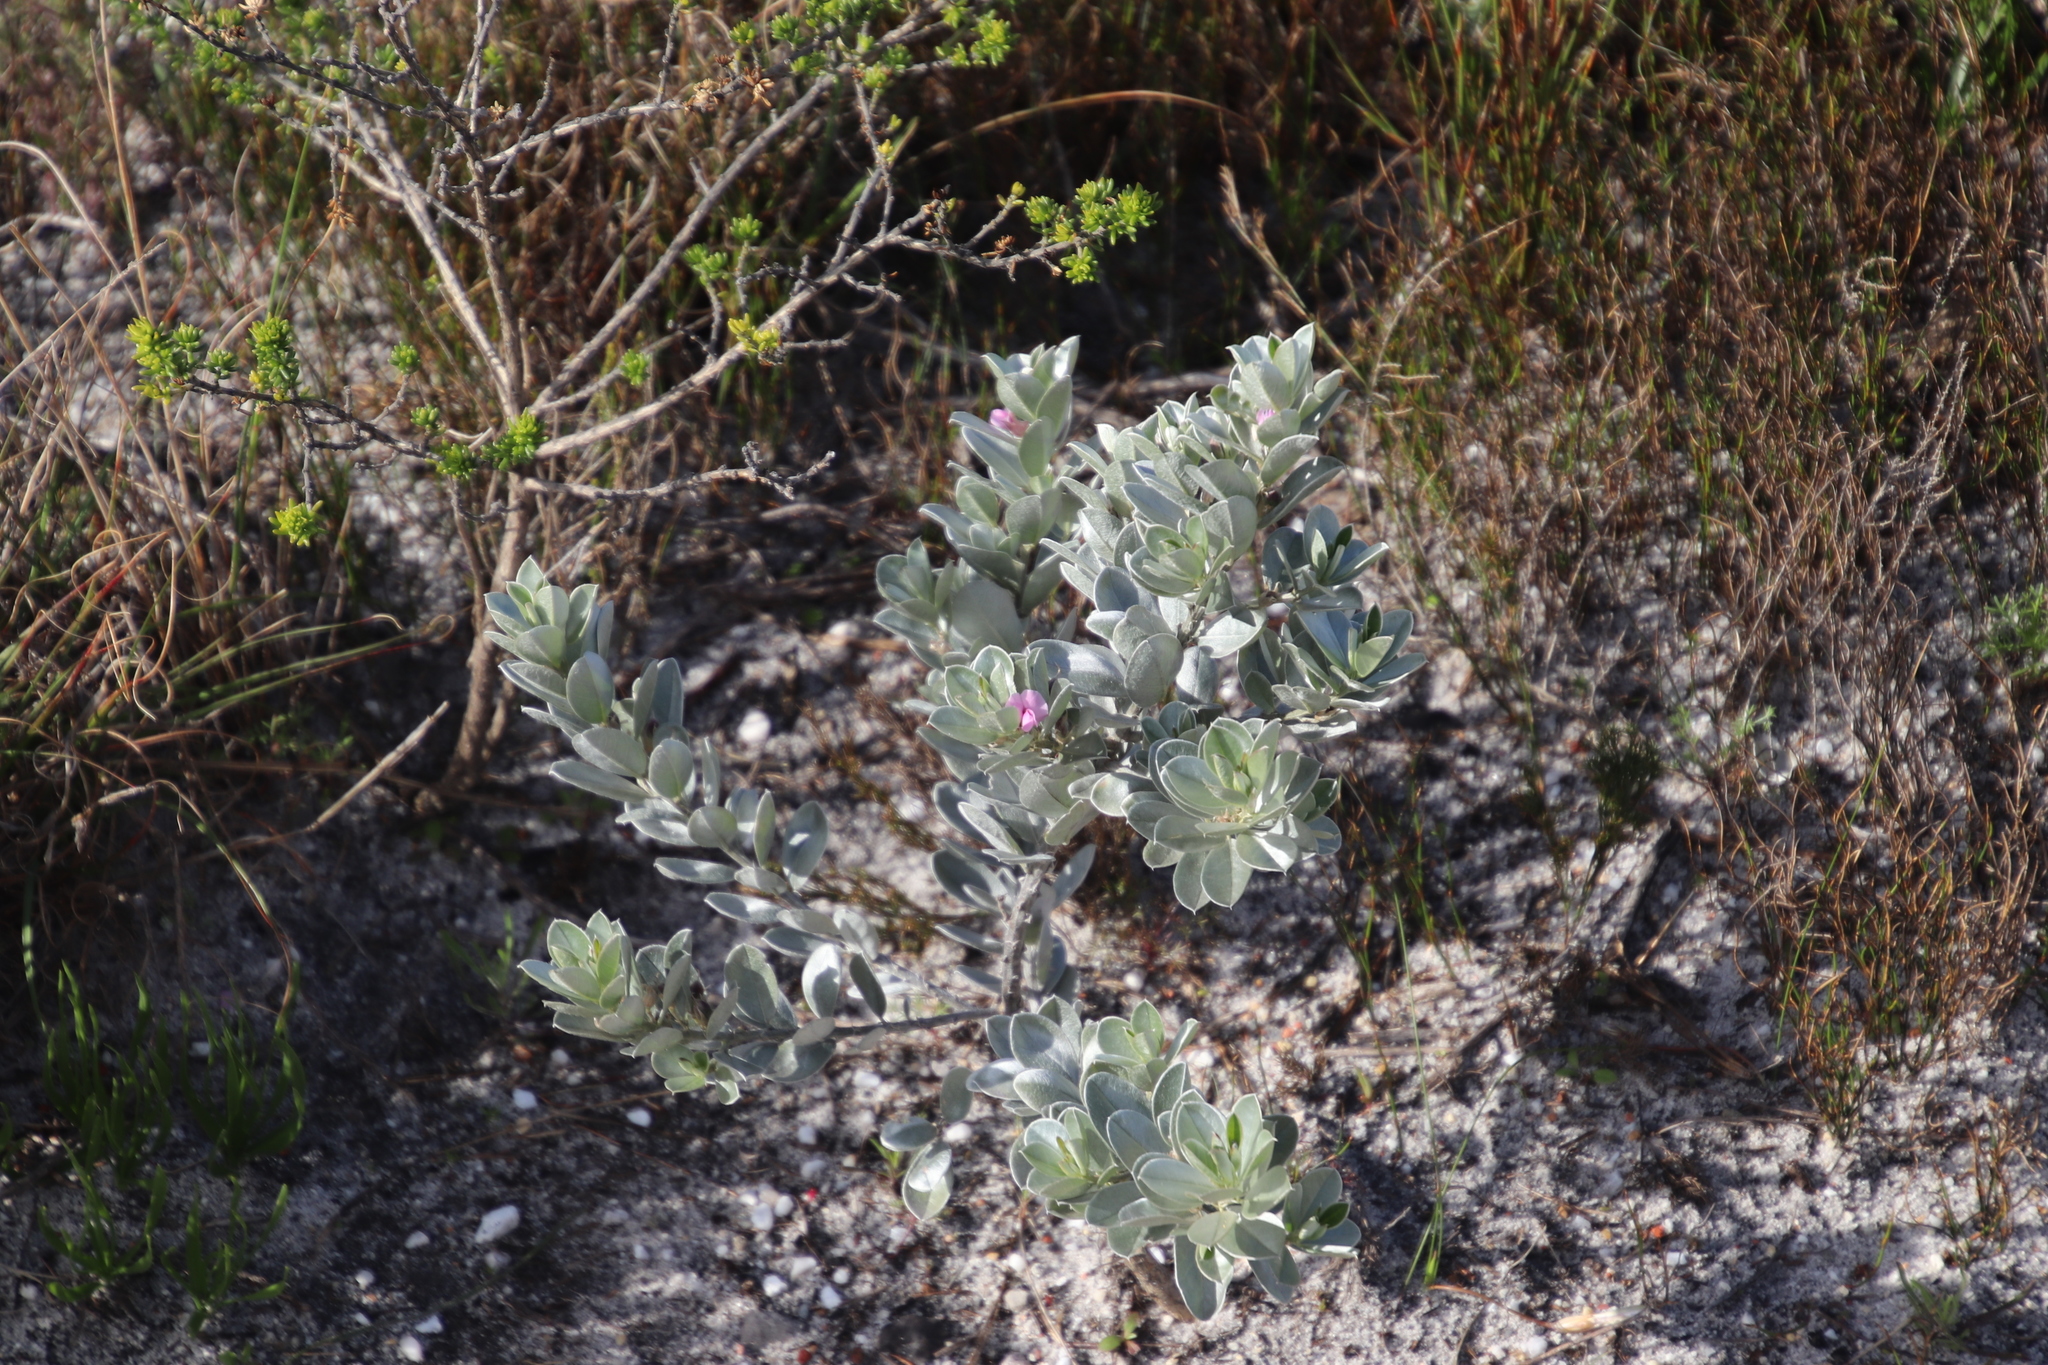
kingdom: Plantae
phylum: Tracheophyta
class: Magnoliopsida
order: Fabales
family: Fabaceae
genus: Podalyria
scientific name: Podalyria sericea
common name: Silver podalyria
